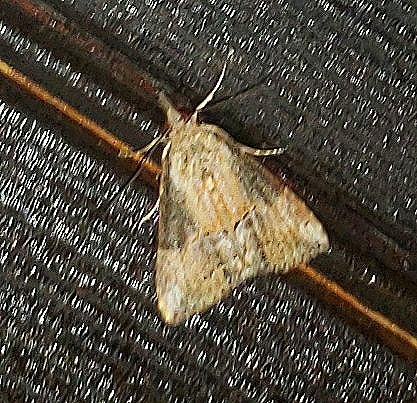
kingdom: Animalia
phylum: Arthropoda
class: Insecta
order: Lepidoptera
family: Erebidae
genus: Hypena
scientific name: Hypena scabra
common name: Green cloverworm
